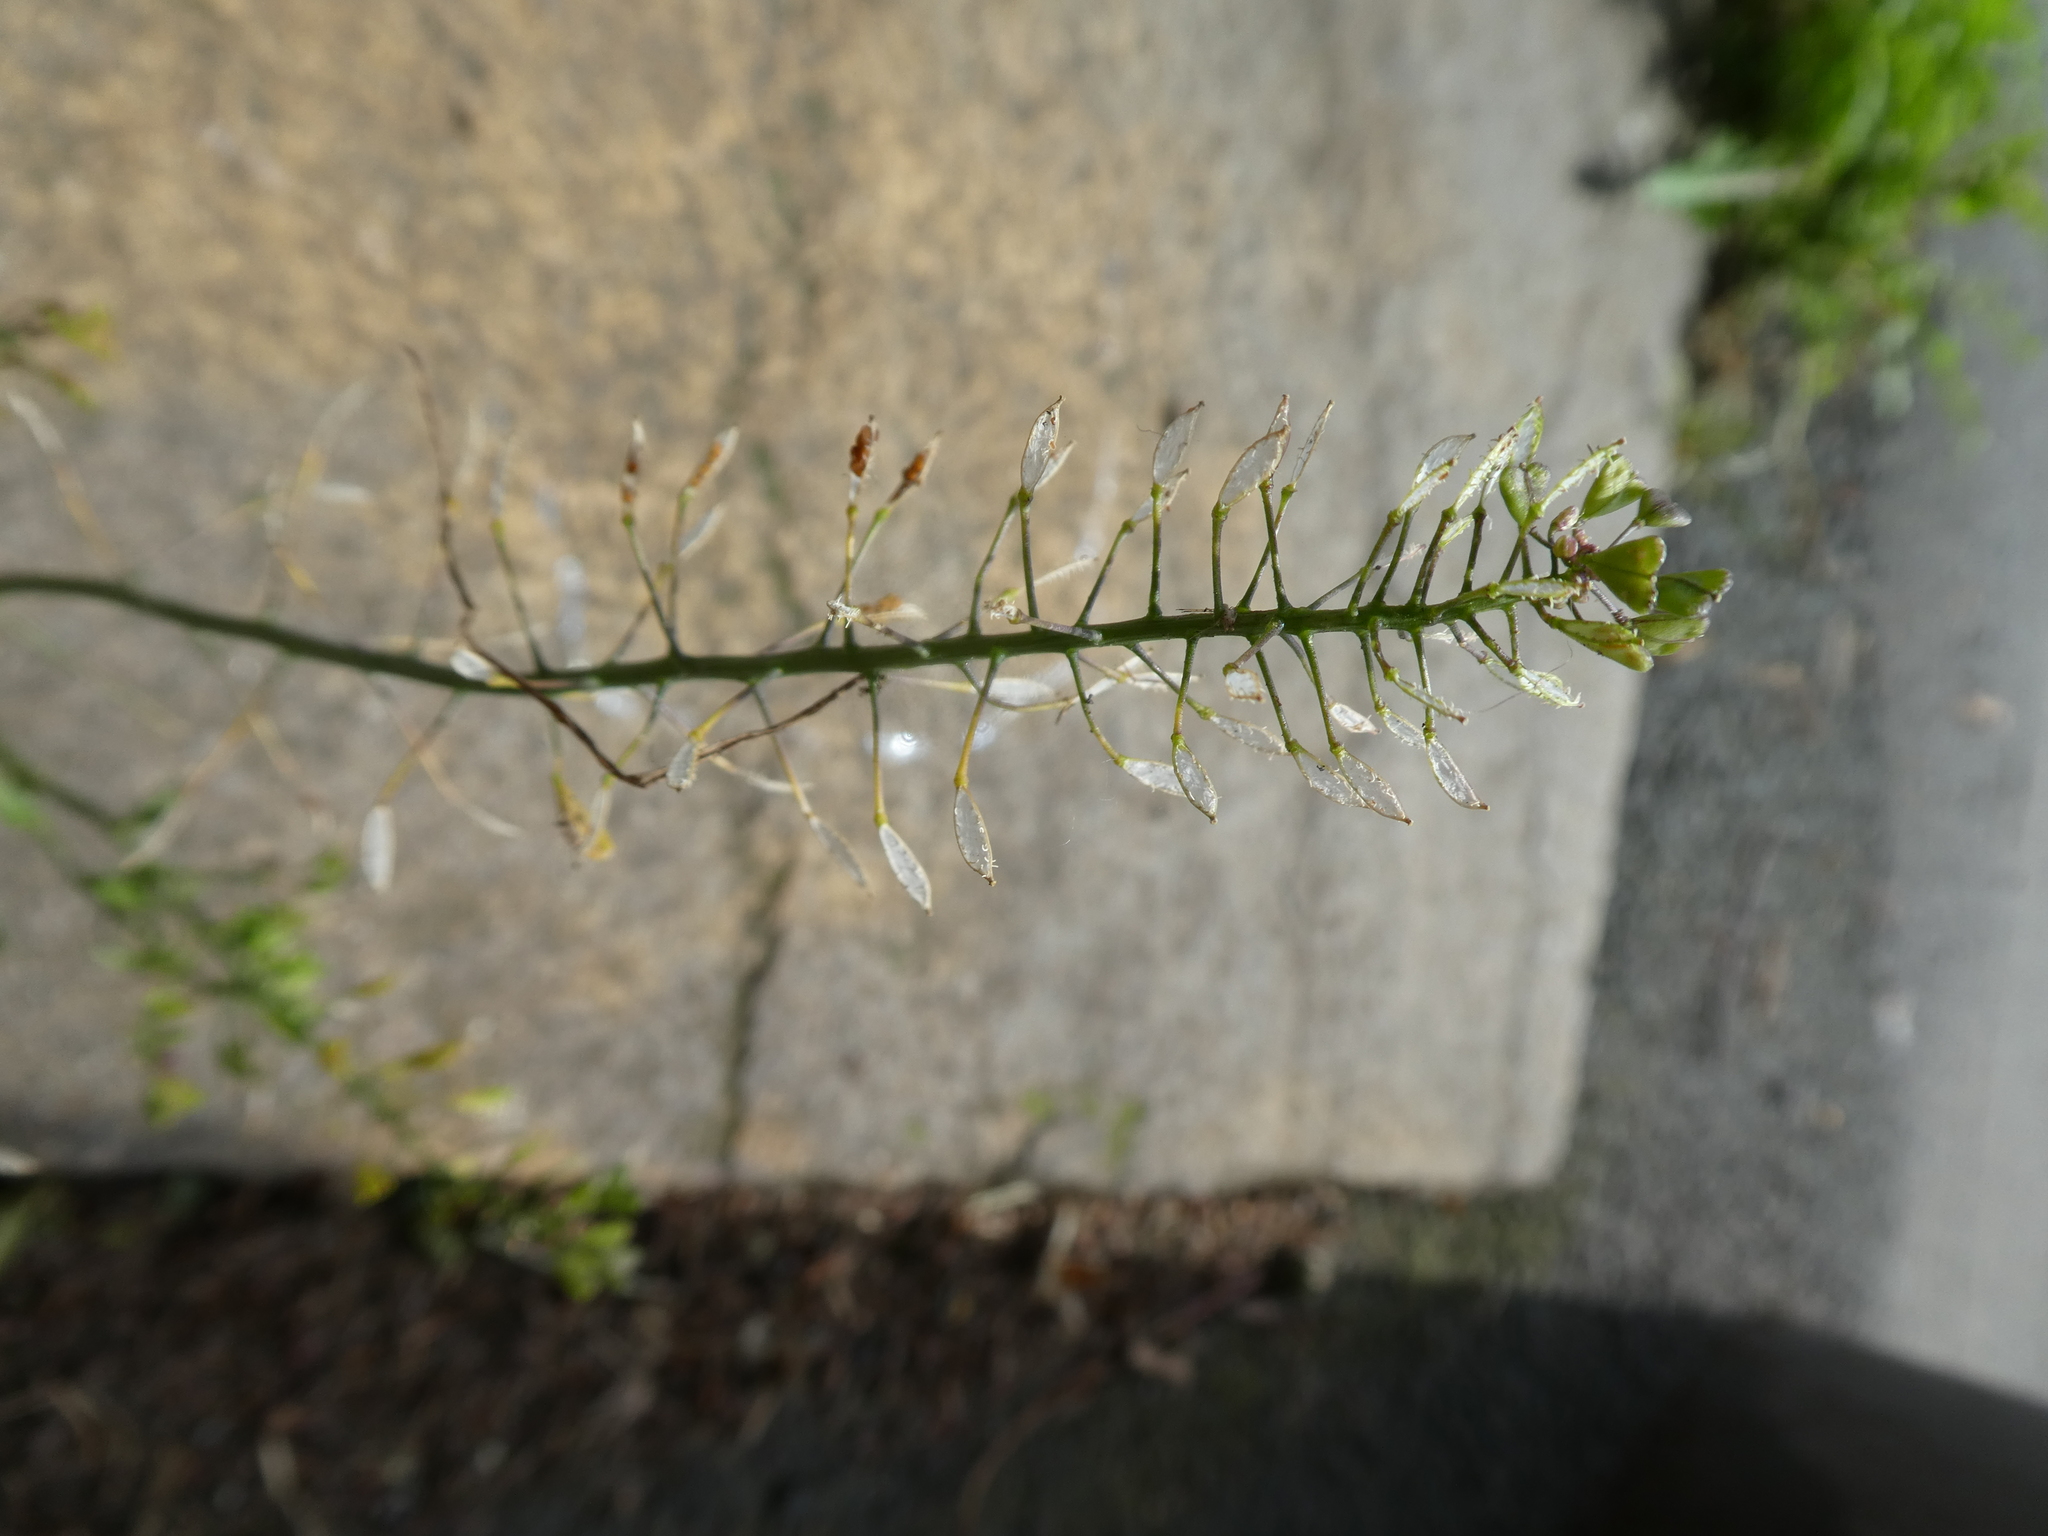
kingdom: Plantae
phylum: Tracheophyta
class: Magnoliopsida
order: Brassicales
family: Brassicaceae
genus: Capsella
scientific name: Capsella bursa-pastoris
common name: Shepherd's purse
